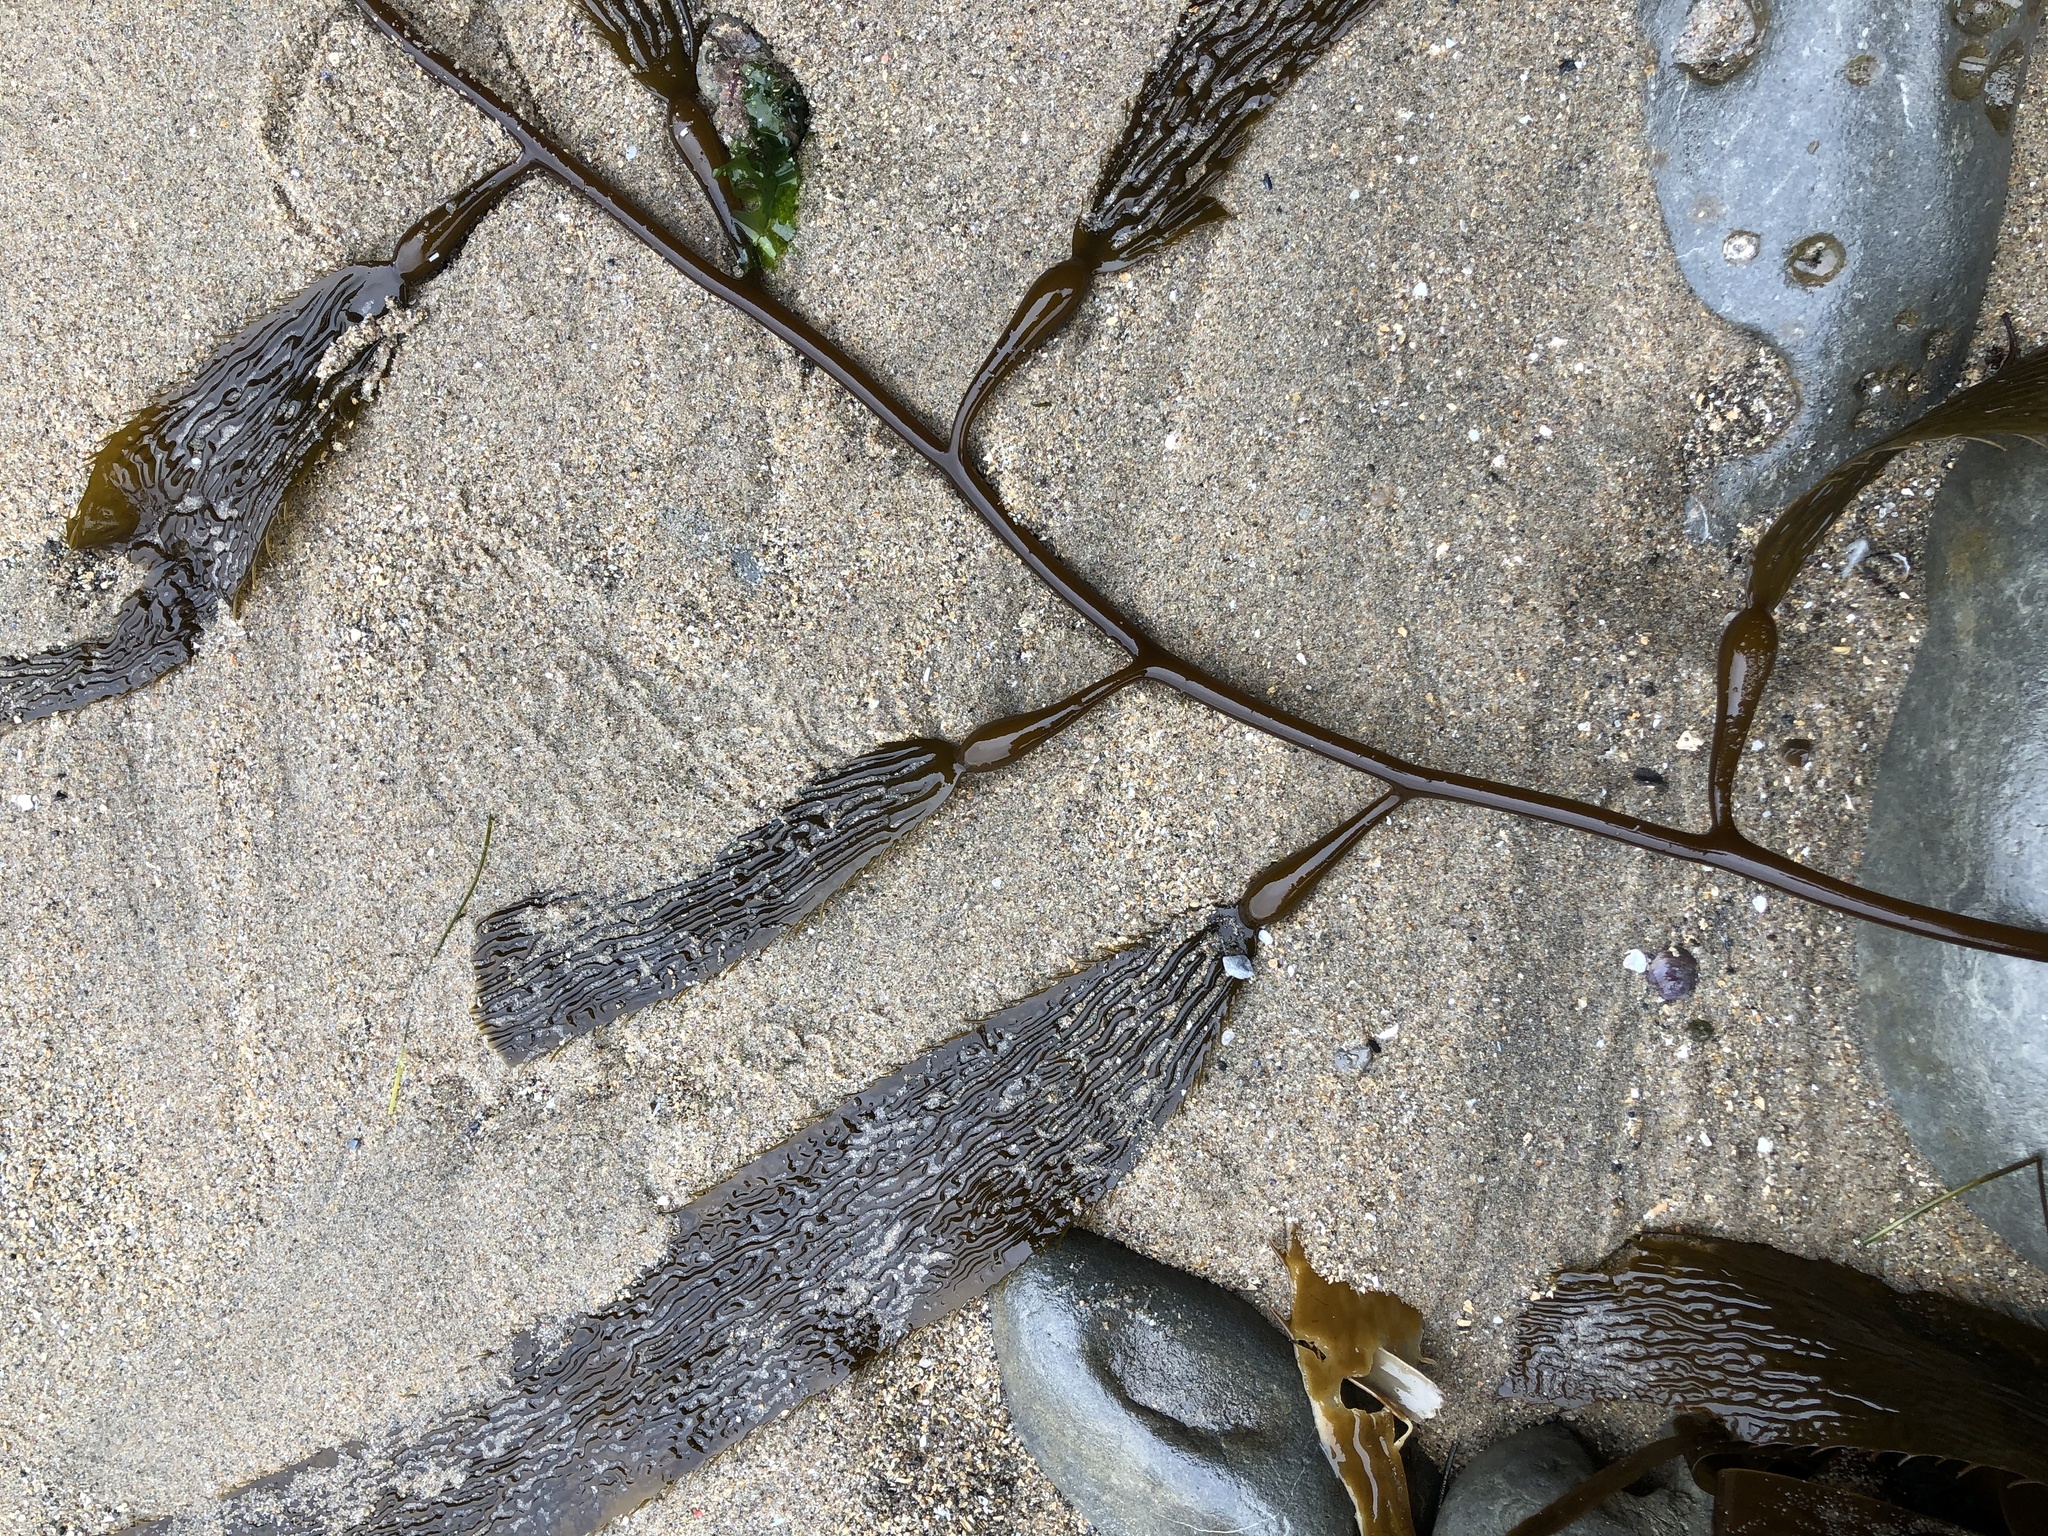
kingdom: Chromista
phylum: Ochrophyta
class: Phaeophyceae
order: Laminariales
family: Laminariaceae
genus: Macrocystis
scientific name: Macrocystis pyrifera
